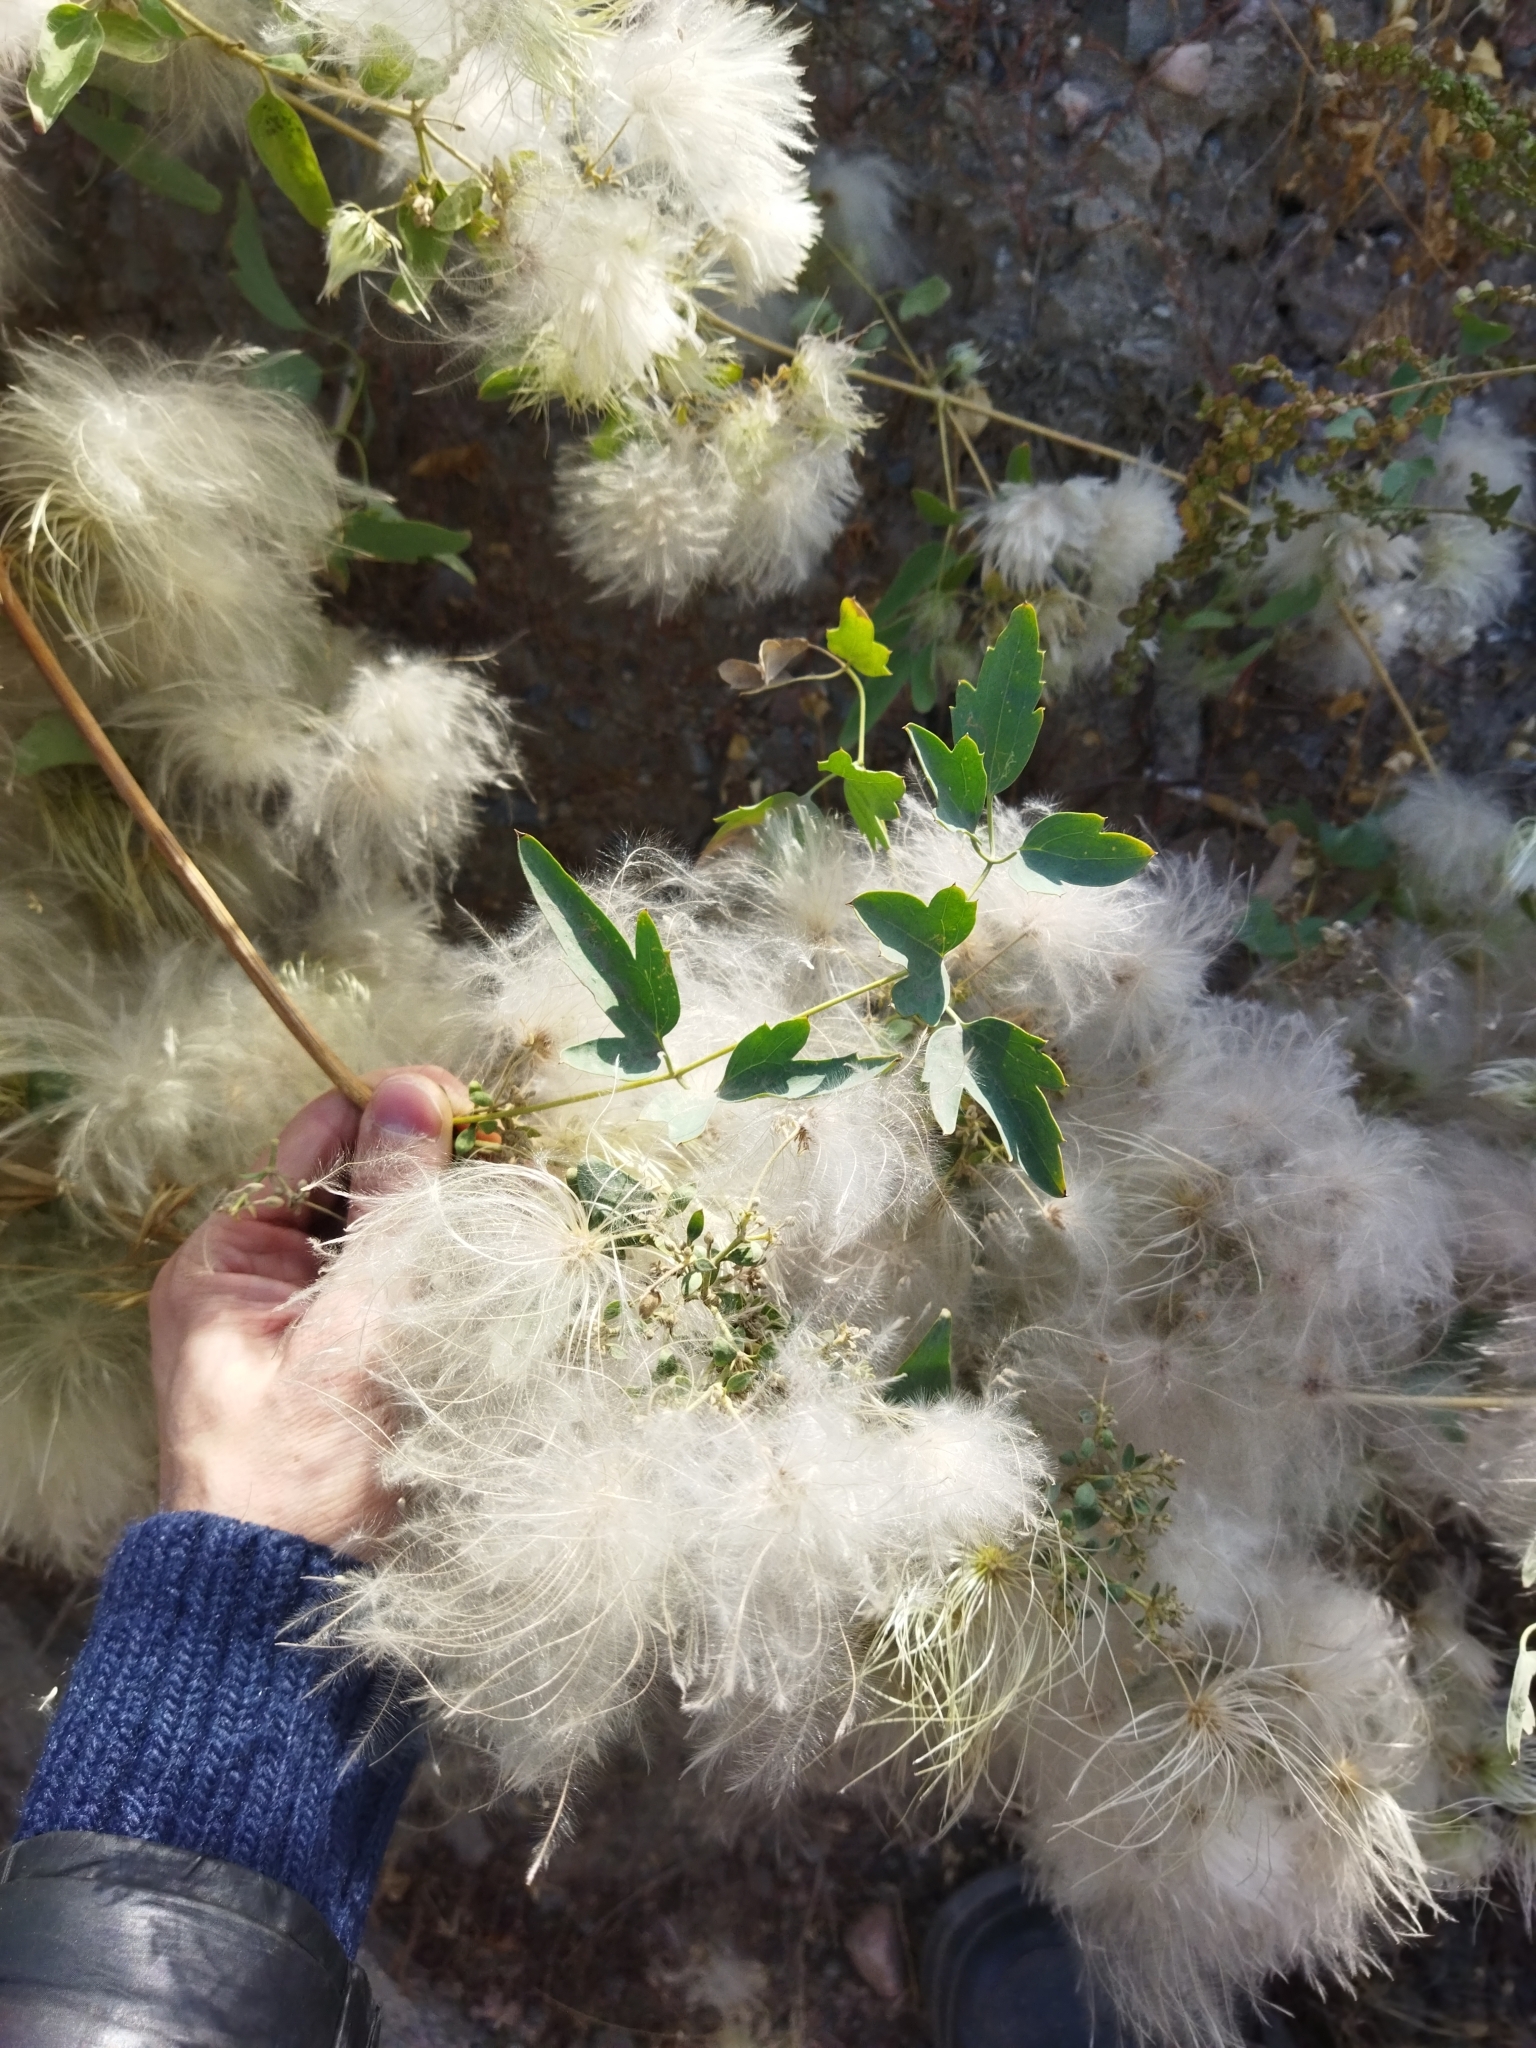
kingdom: Plantae
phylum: Tracheophyta
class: Magnoliopsida
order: Ranunculales
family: Ranunculaceae
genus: Clematis
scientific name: Clematis orientalis
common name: Oriental virgin's-bower
